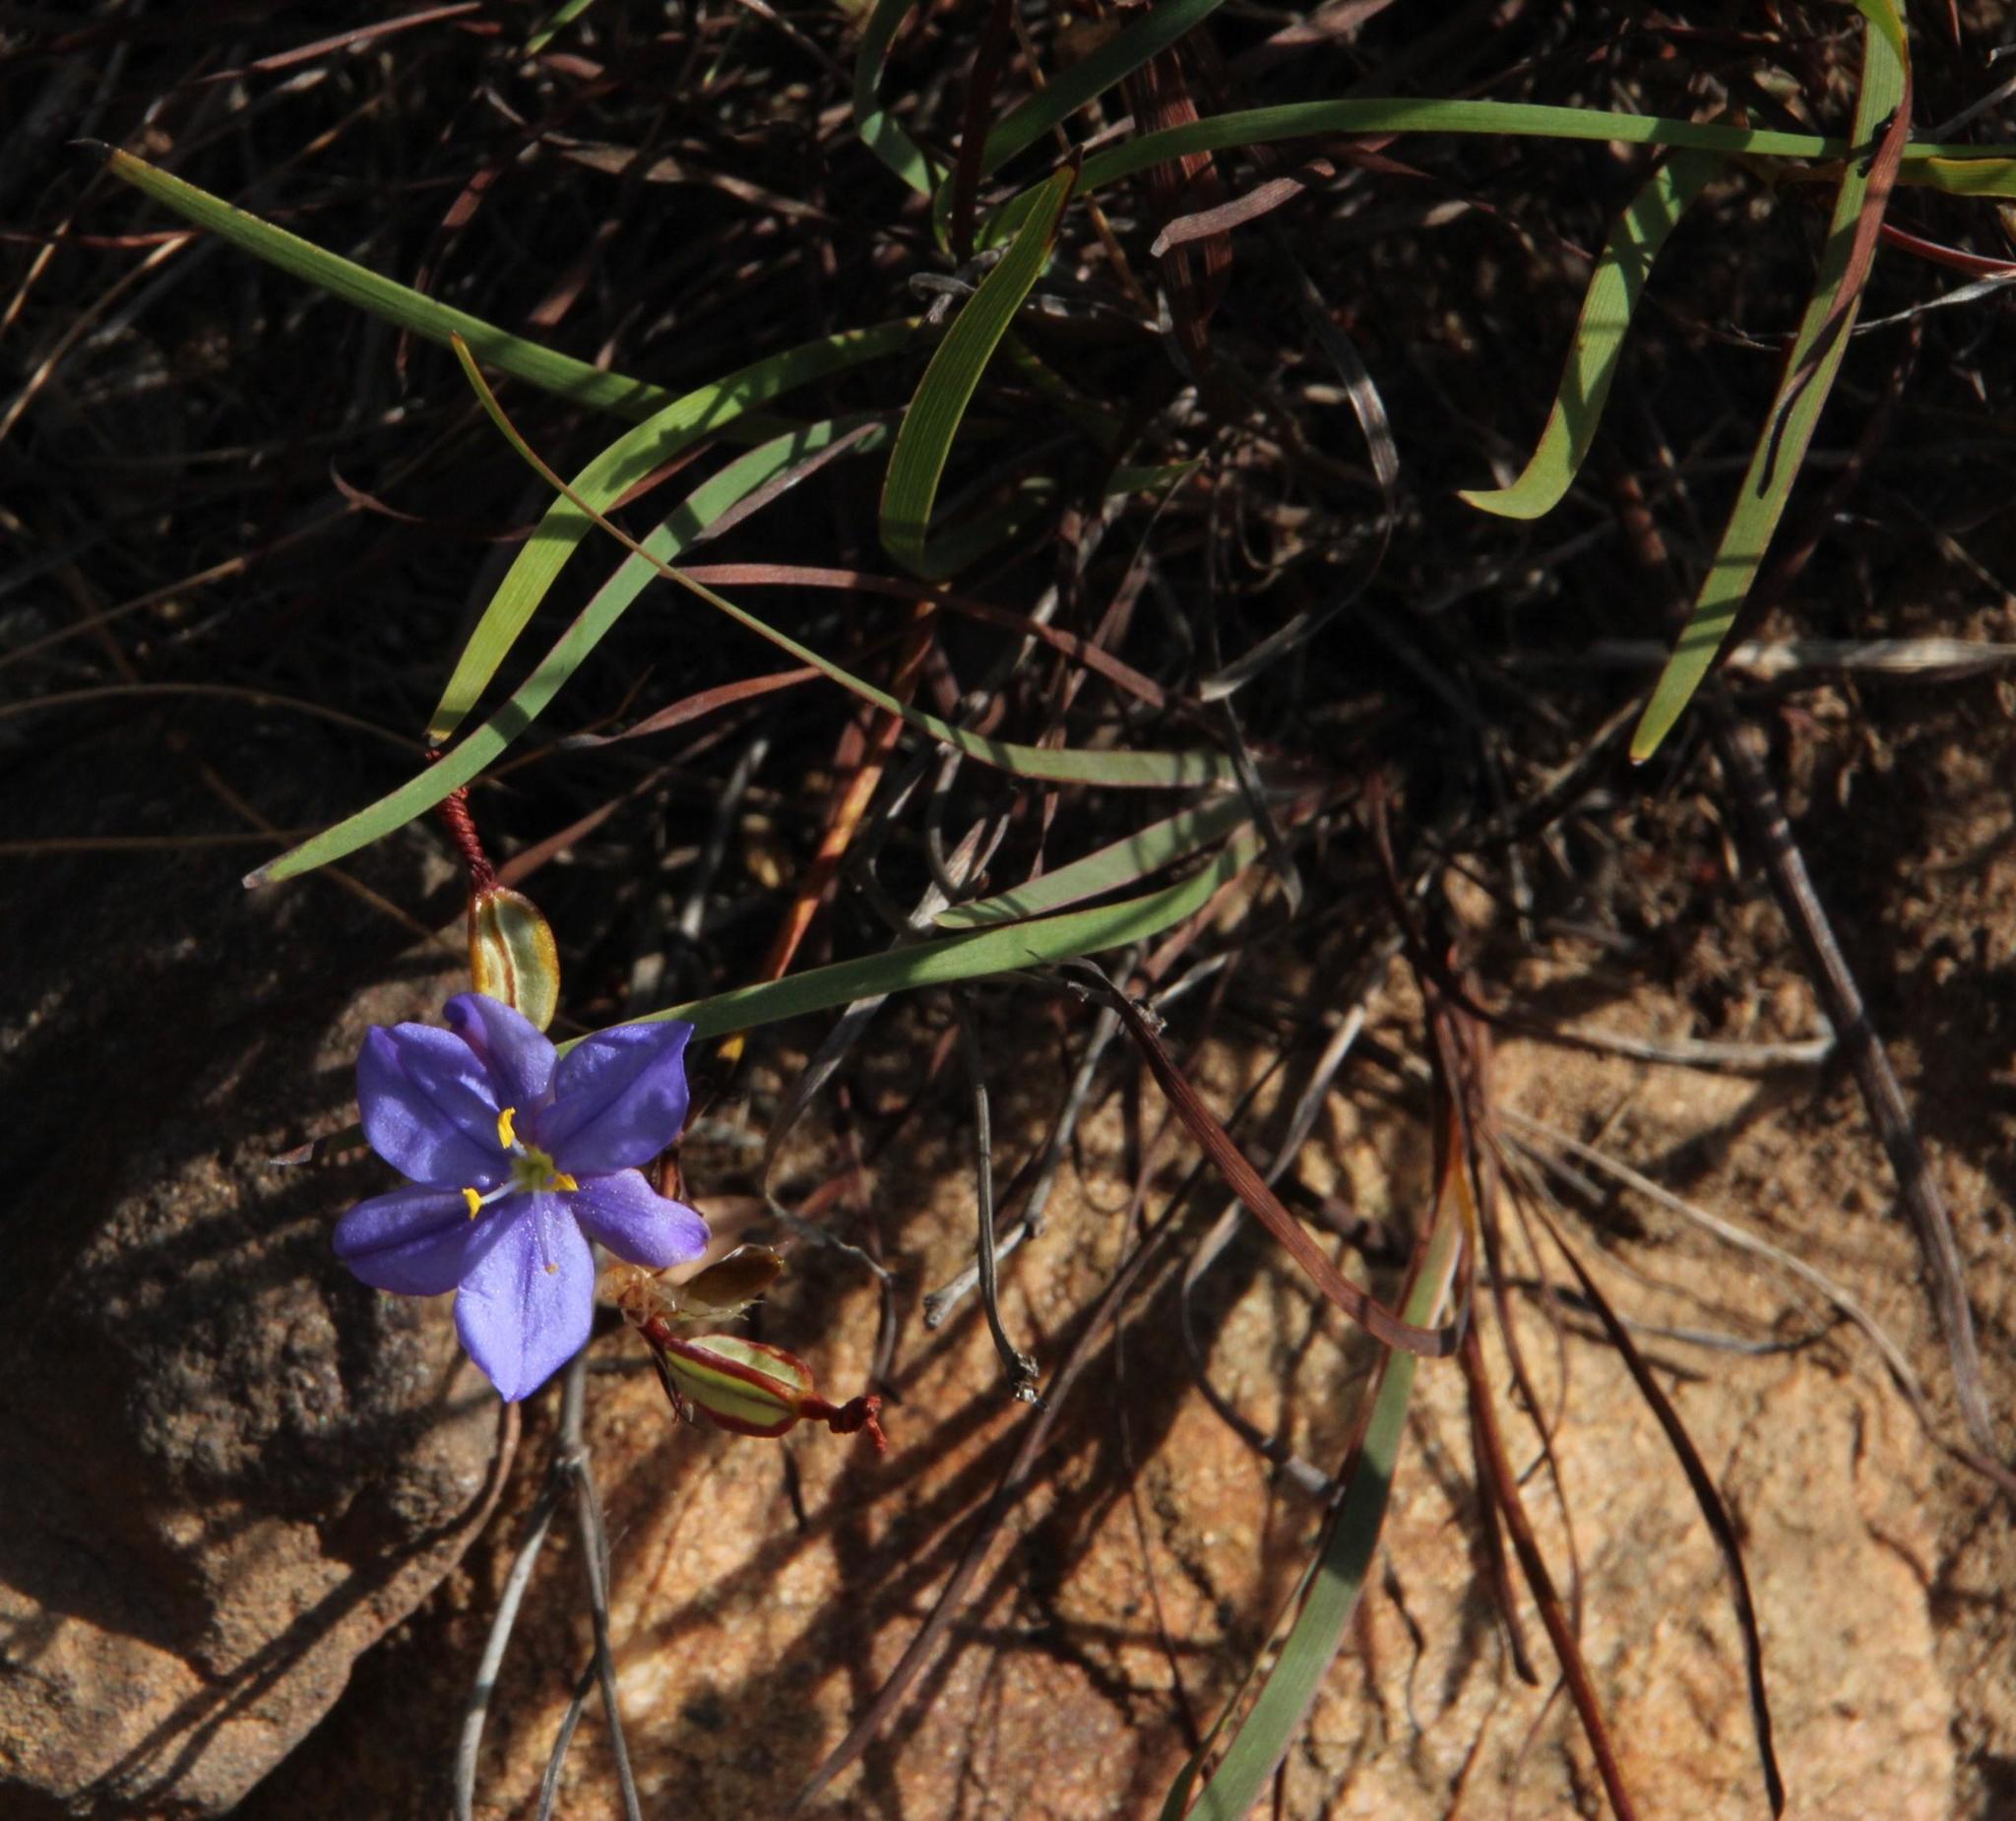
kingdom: Plantae
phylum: Tracheophyta
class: Liliopsida
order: Asparagales
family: Iridaceae
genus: Aristea
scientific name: Aristea africana
